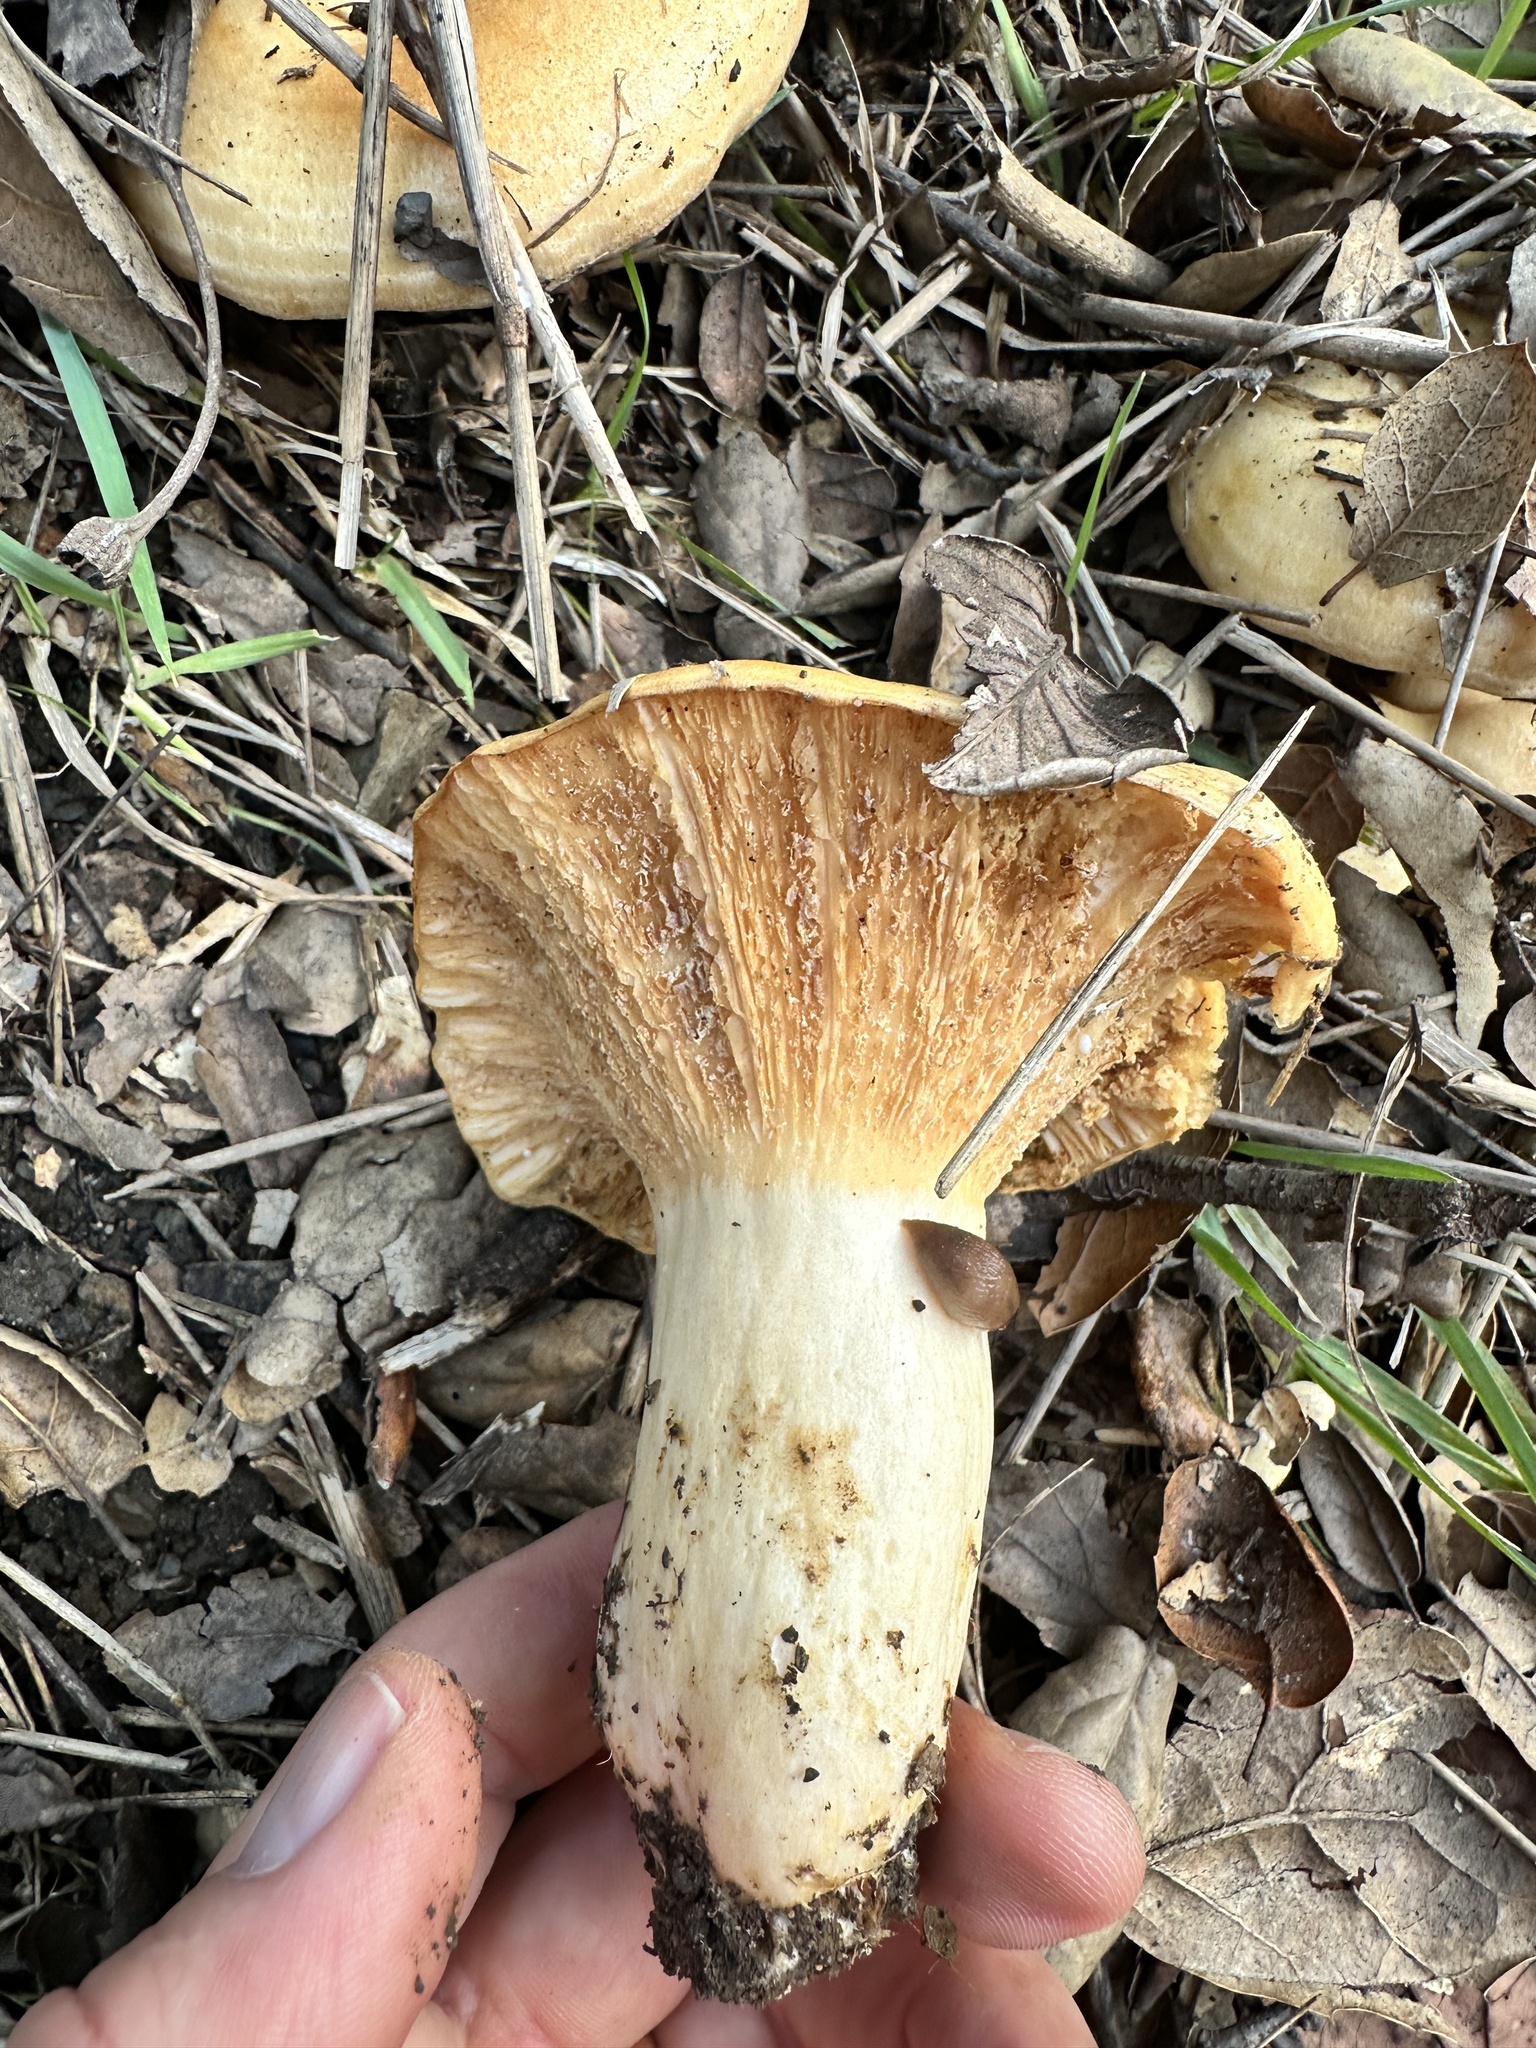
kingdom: Fungi
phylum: Basidiomycota
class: Agaricomycetes
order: Russulales
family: Russulaceae
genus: Lactarius
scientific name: Lactarius alnicola
